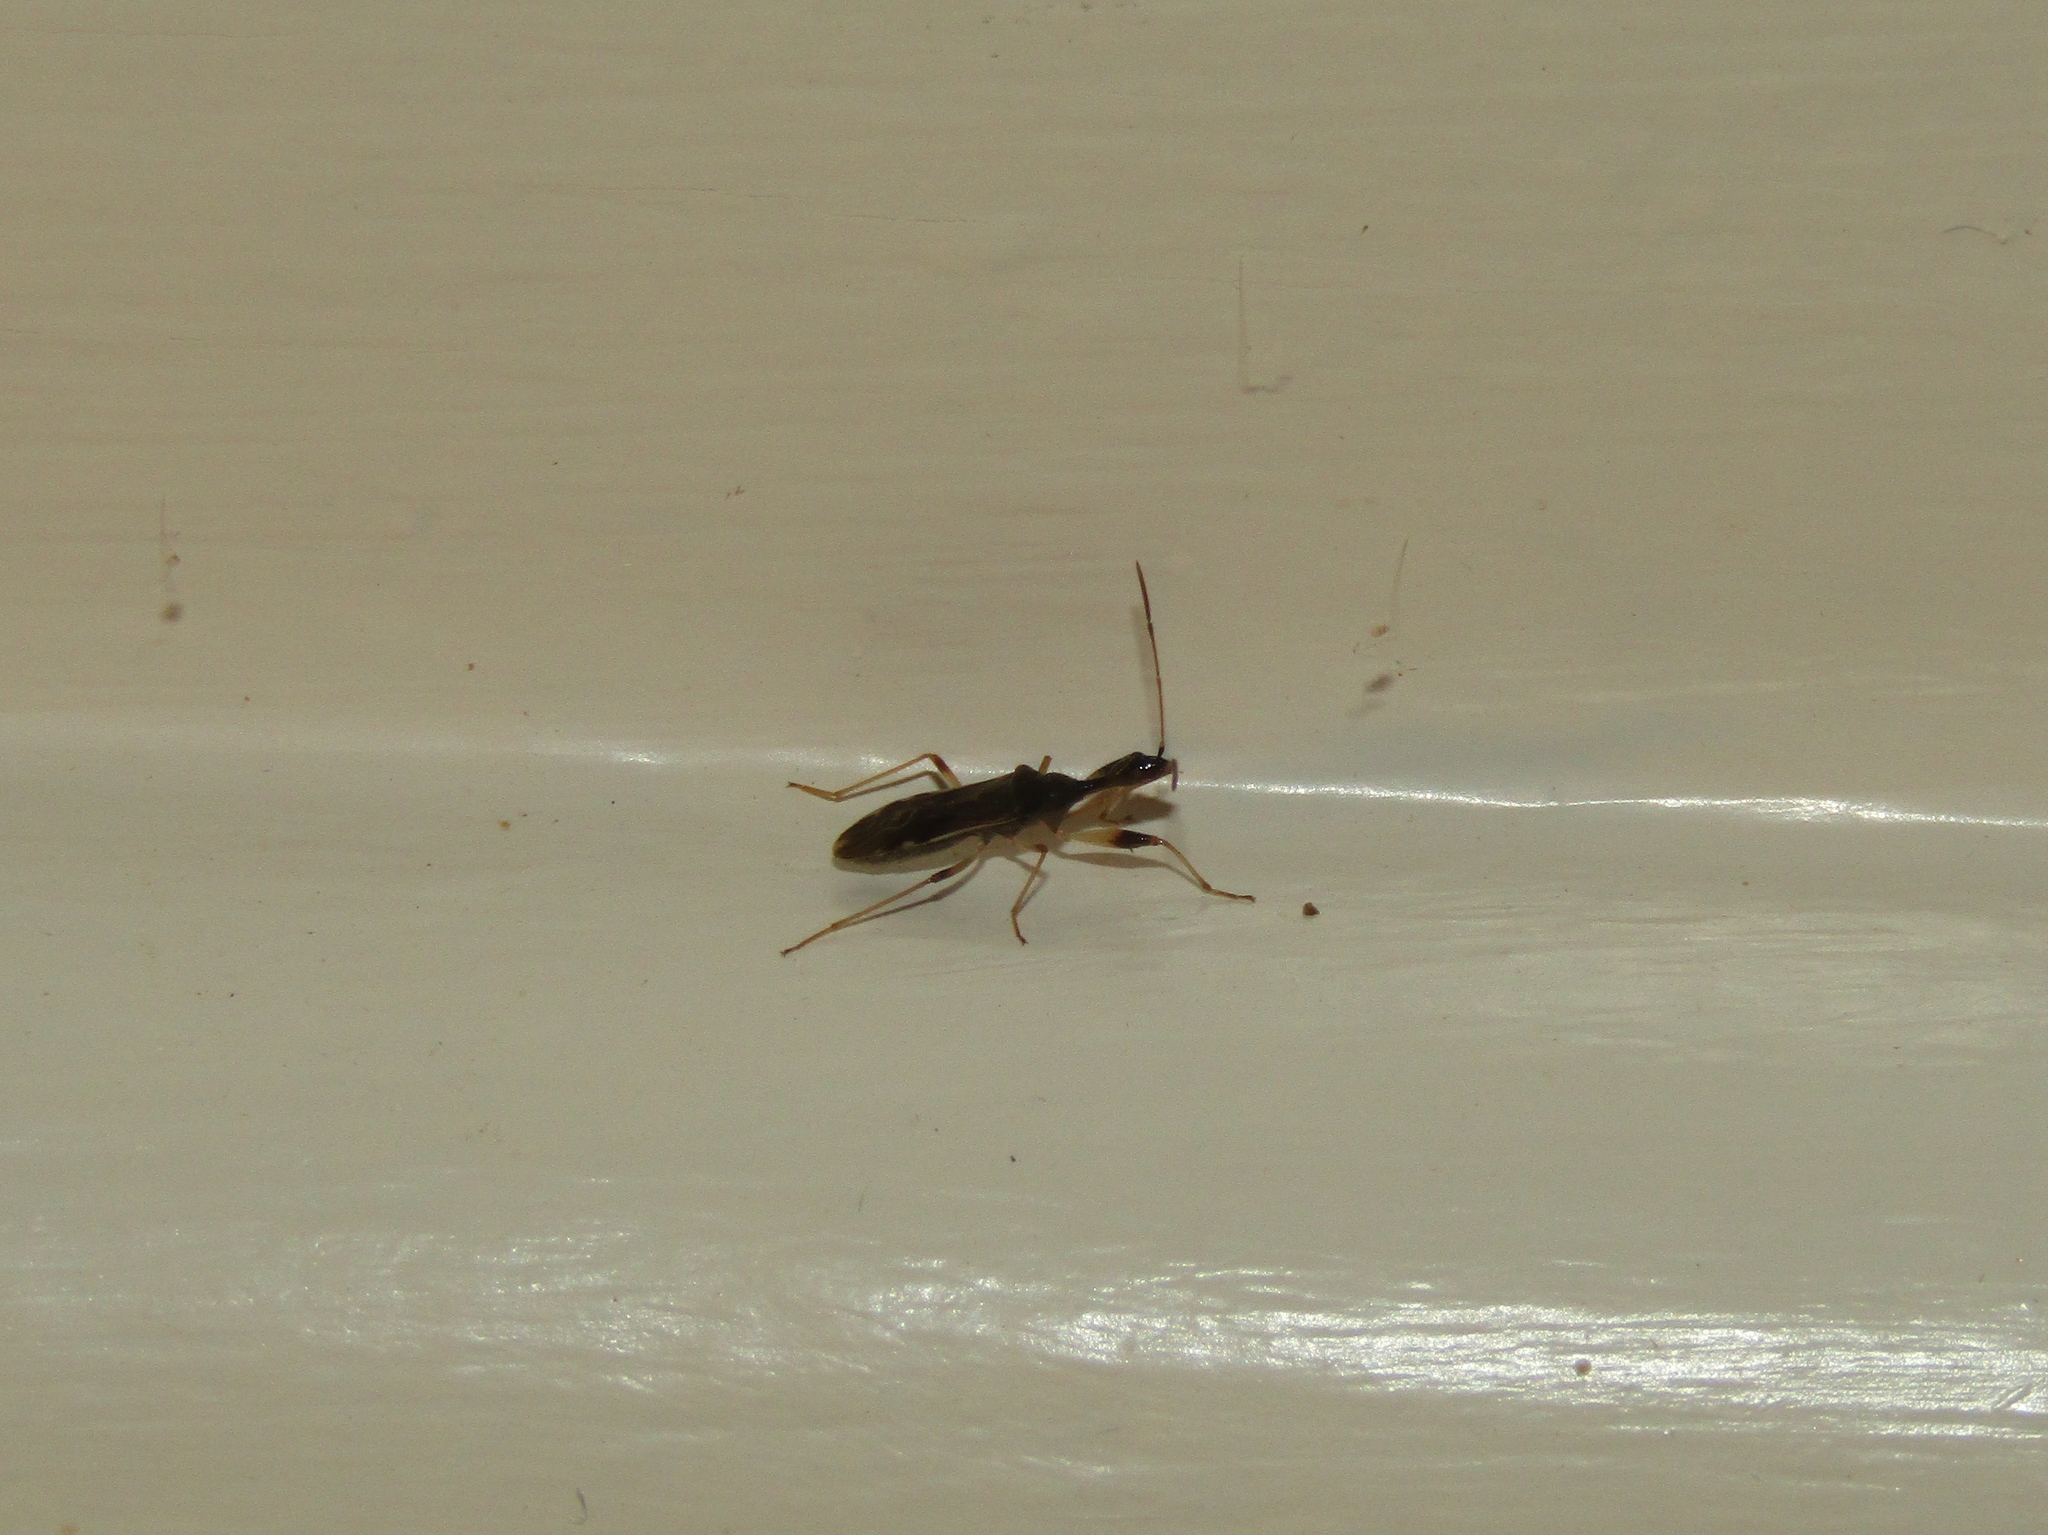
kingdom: Animalia
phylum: Arthropoda
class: Insecta
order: Hemiptera
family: Rhyparochromidae
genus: Myodocha
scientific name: Myodocha serripes
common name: Long-necked seed bug
